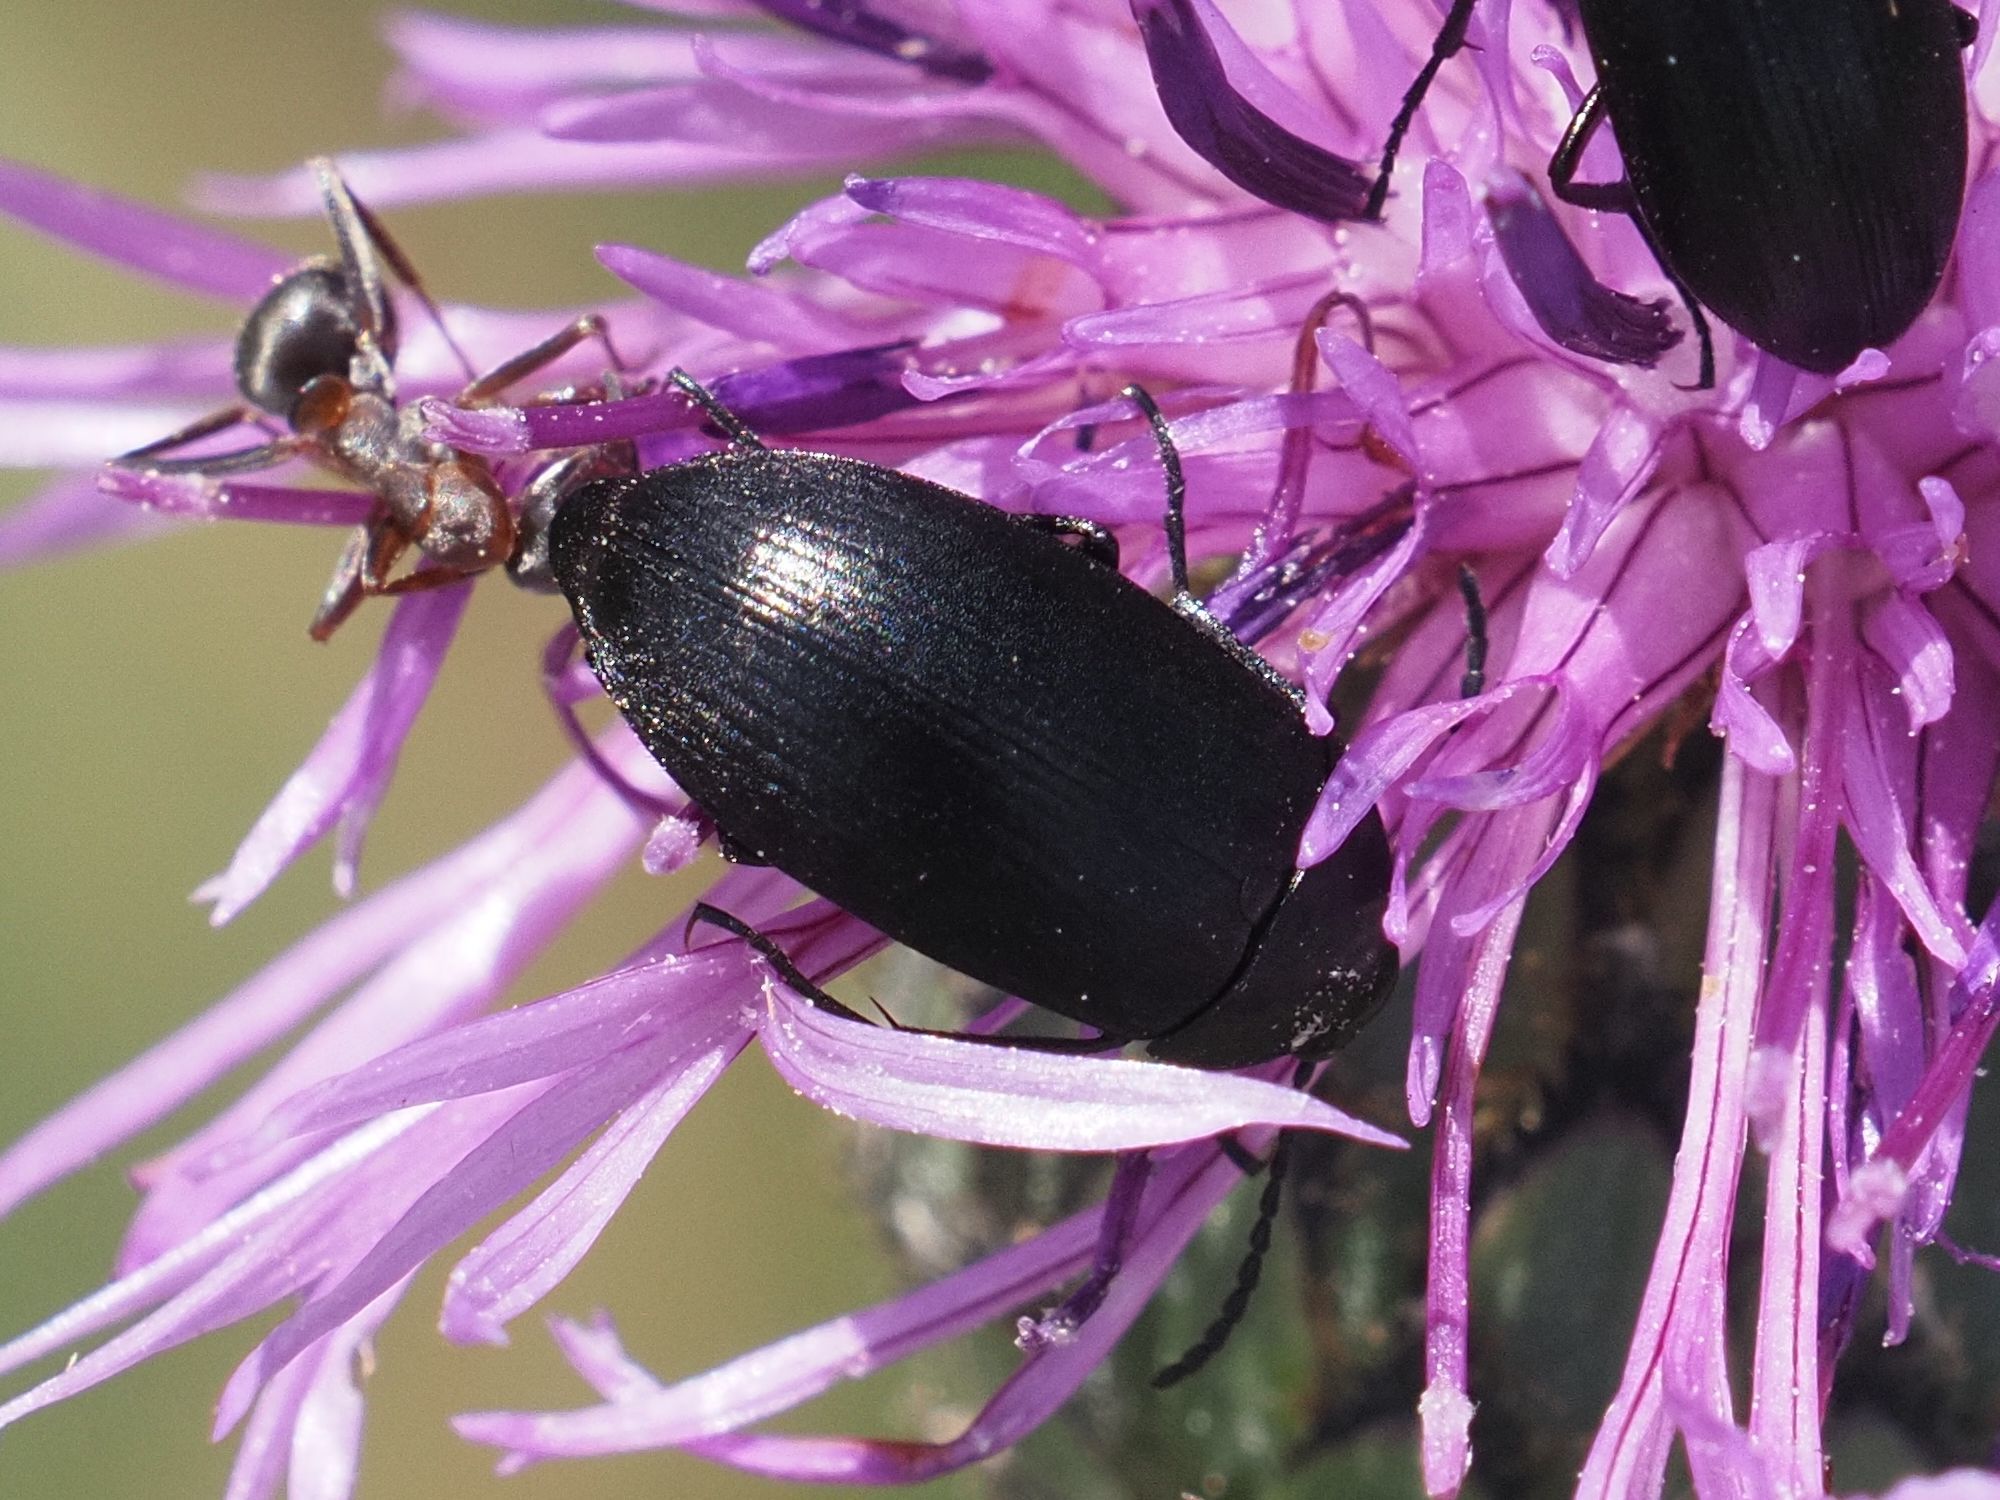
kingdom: Animalia
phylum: Arthropoda
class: Insecta
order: Coleoptera
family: Tenebrionidae
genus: Podonta
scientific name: Podonta nigrita
